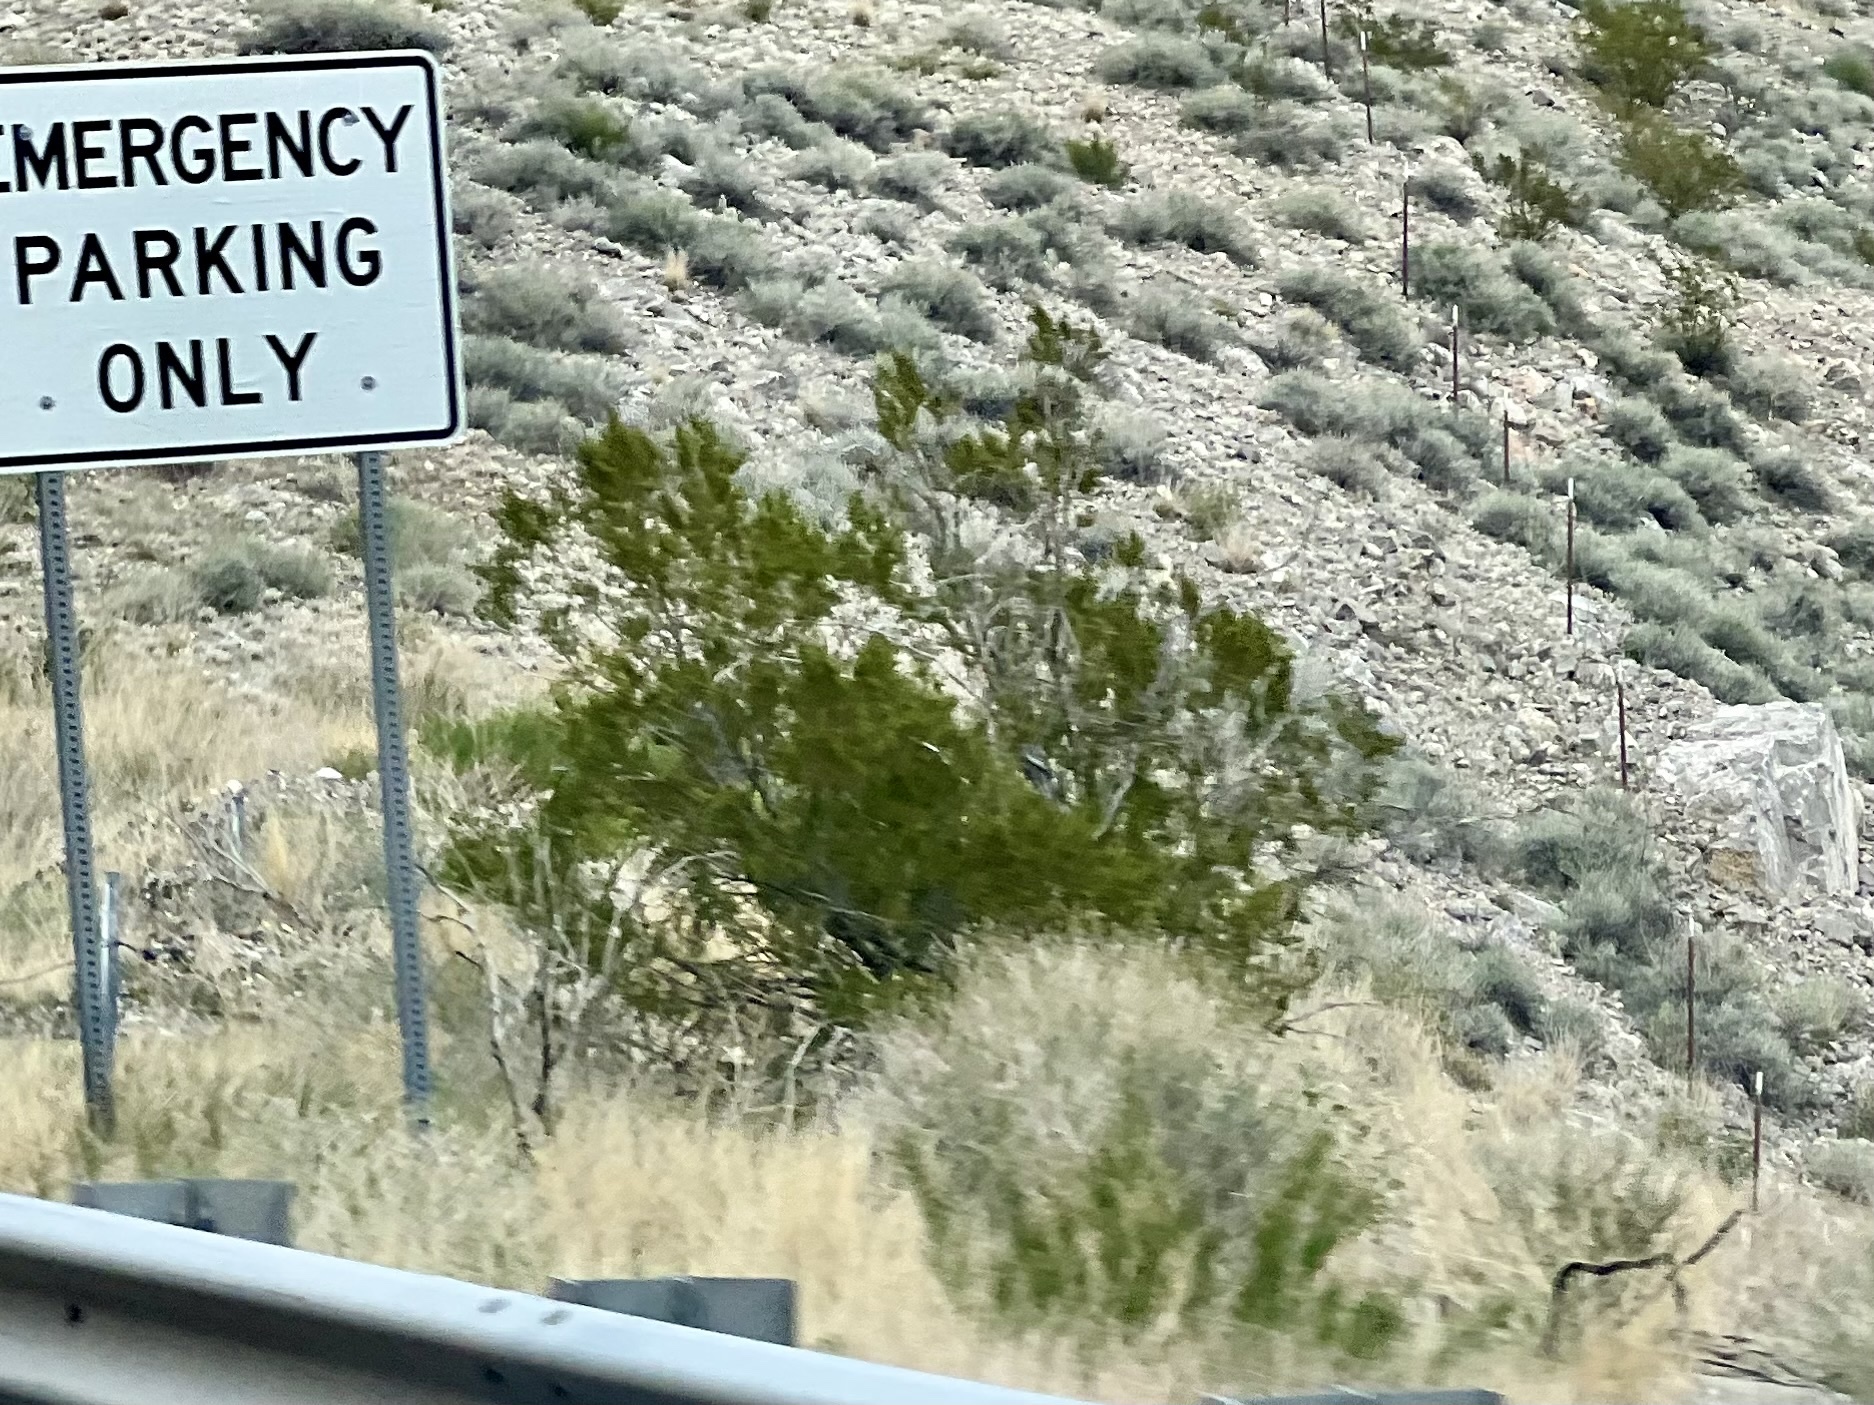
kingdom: Plantae
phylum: Tracheophyta
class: Magnoliopsida
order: Zygophyllales
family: Zygophyllaceae
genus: Larrea
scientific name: Larrea tridentata
